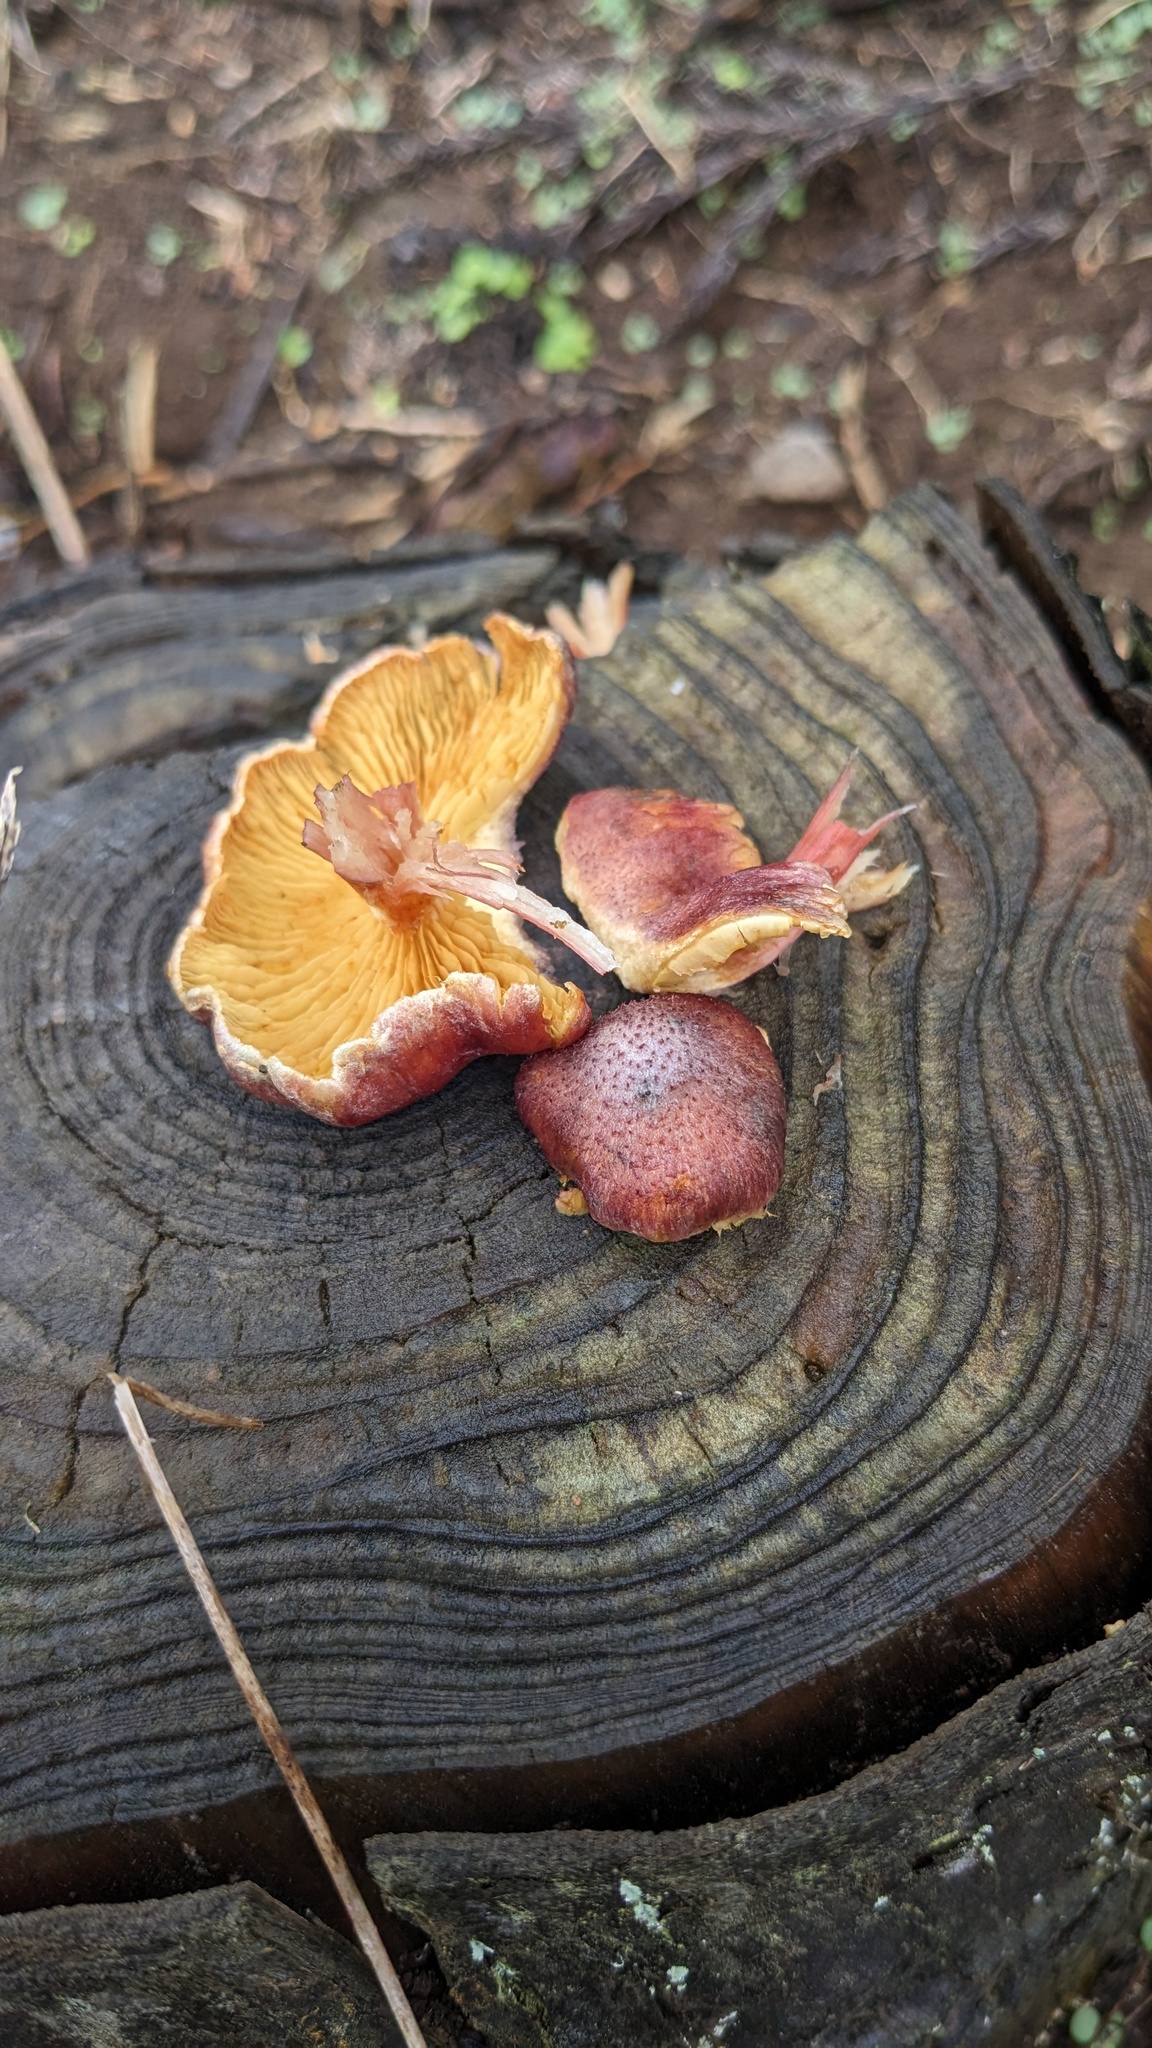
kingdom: Fungi
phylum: Basidiomycota
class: Agaricomycetes
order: Agaricales
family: Hymenogastraceae
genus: Gymnopilus
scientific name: Gymnopilus luteofolius
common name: Yellow-gilled gymnopilus
